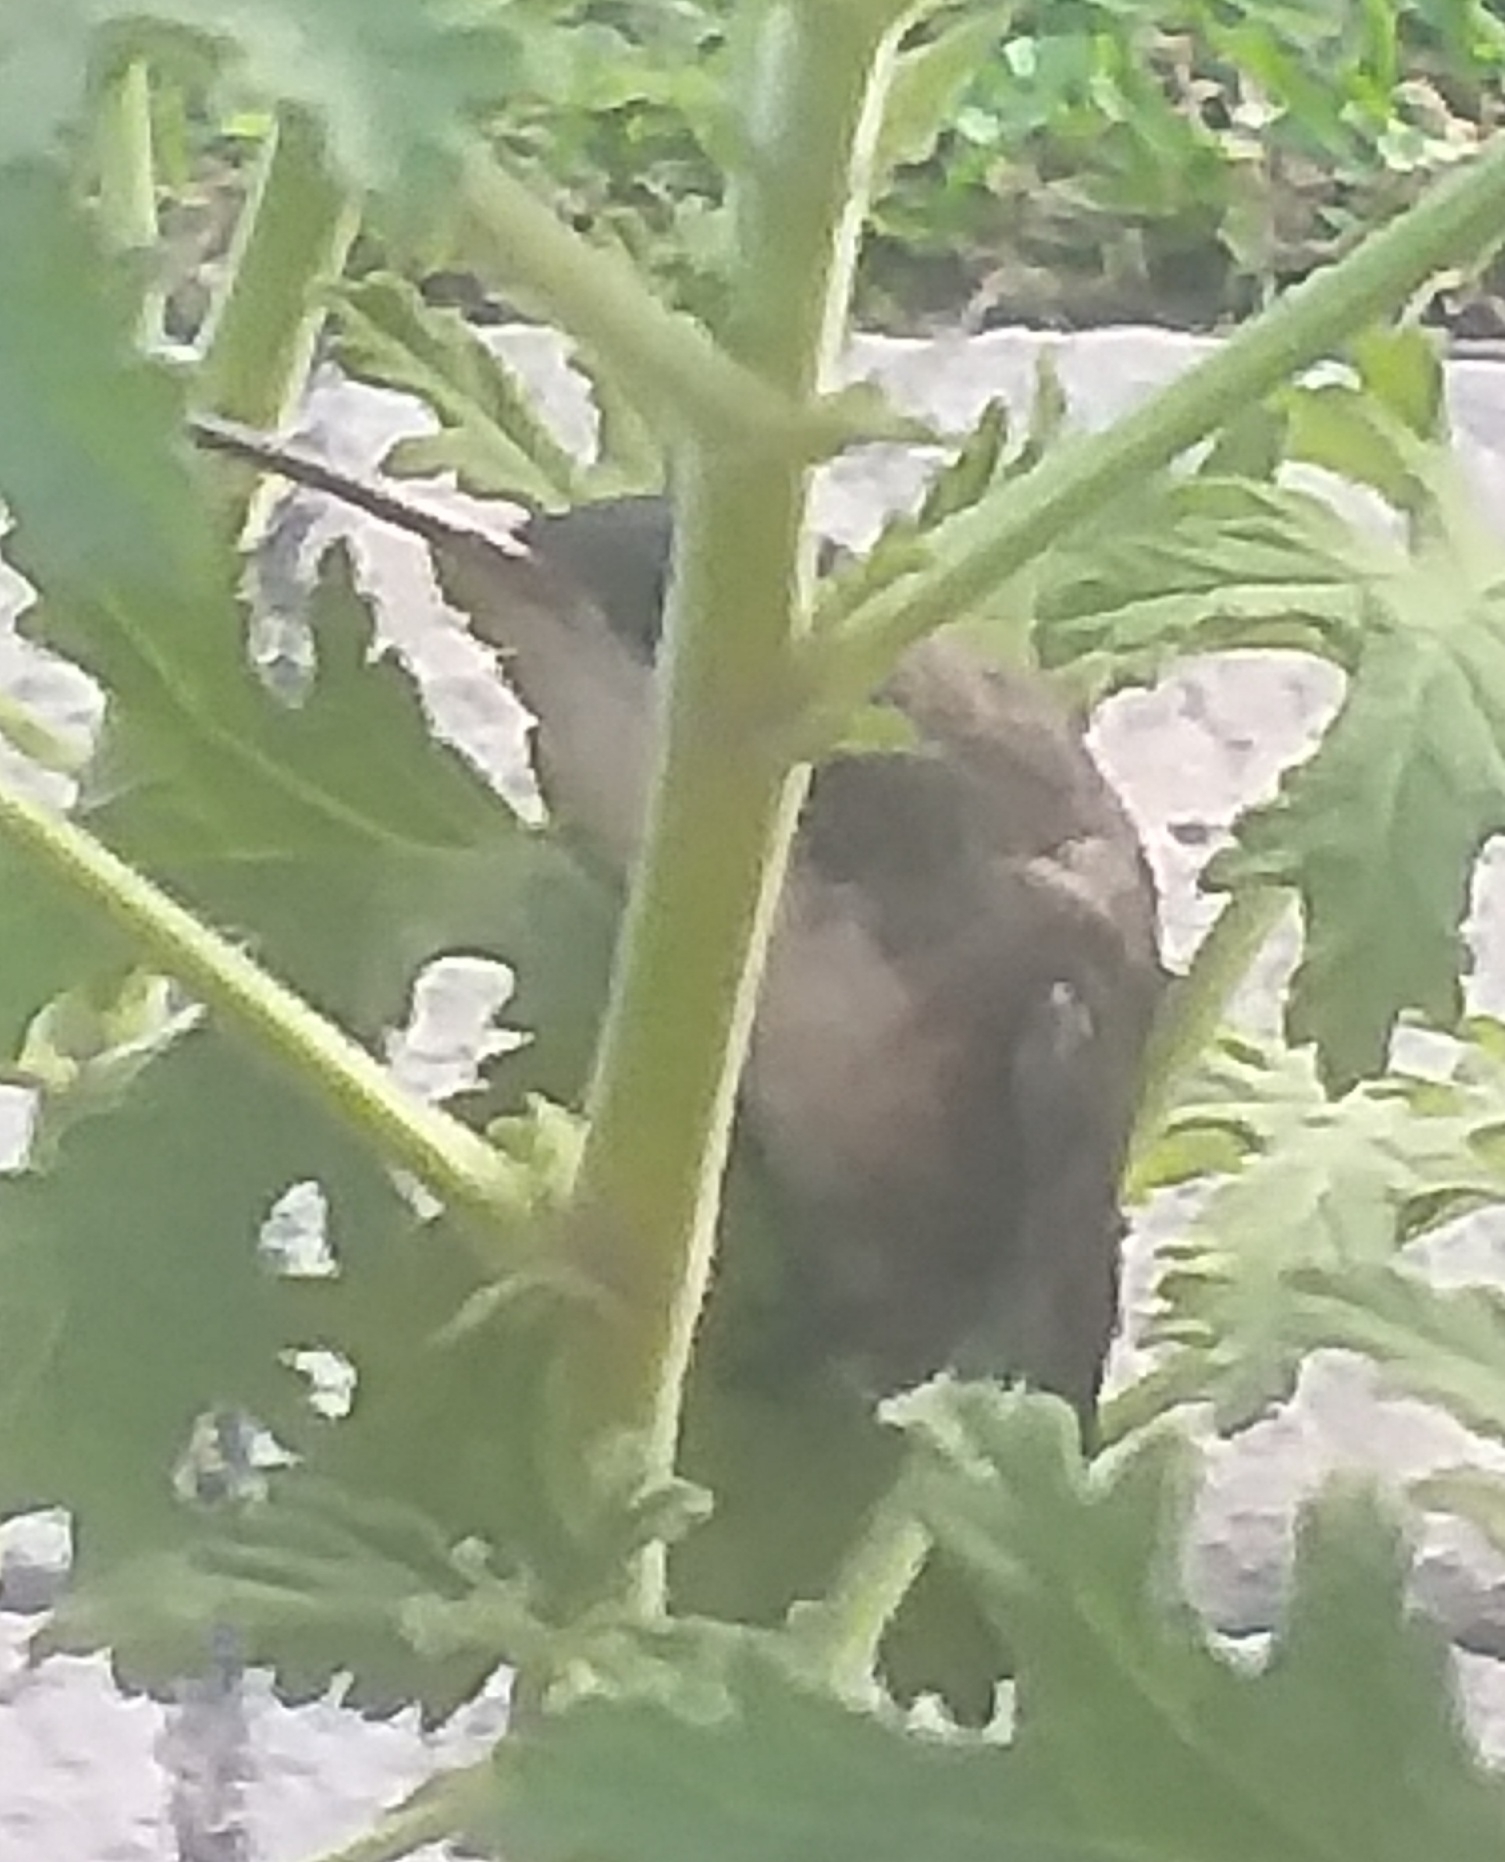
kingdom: Animalia
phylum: Chordata
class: Aves
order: Apodiformes
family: Trochilidae
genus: Leucolia
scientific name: Leucolia violiceps
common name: Violet-crowned hummingbird
